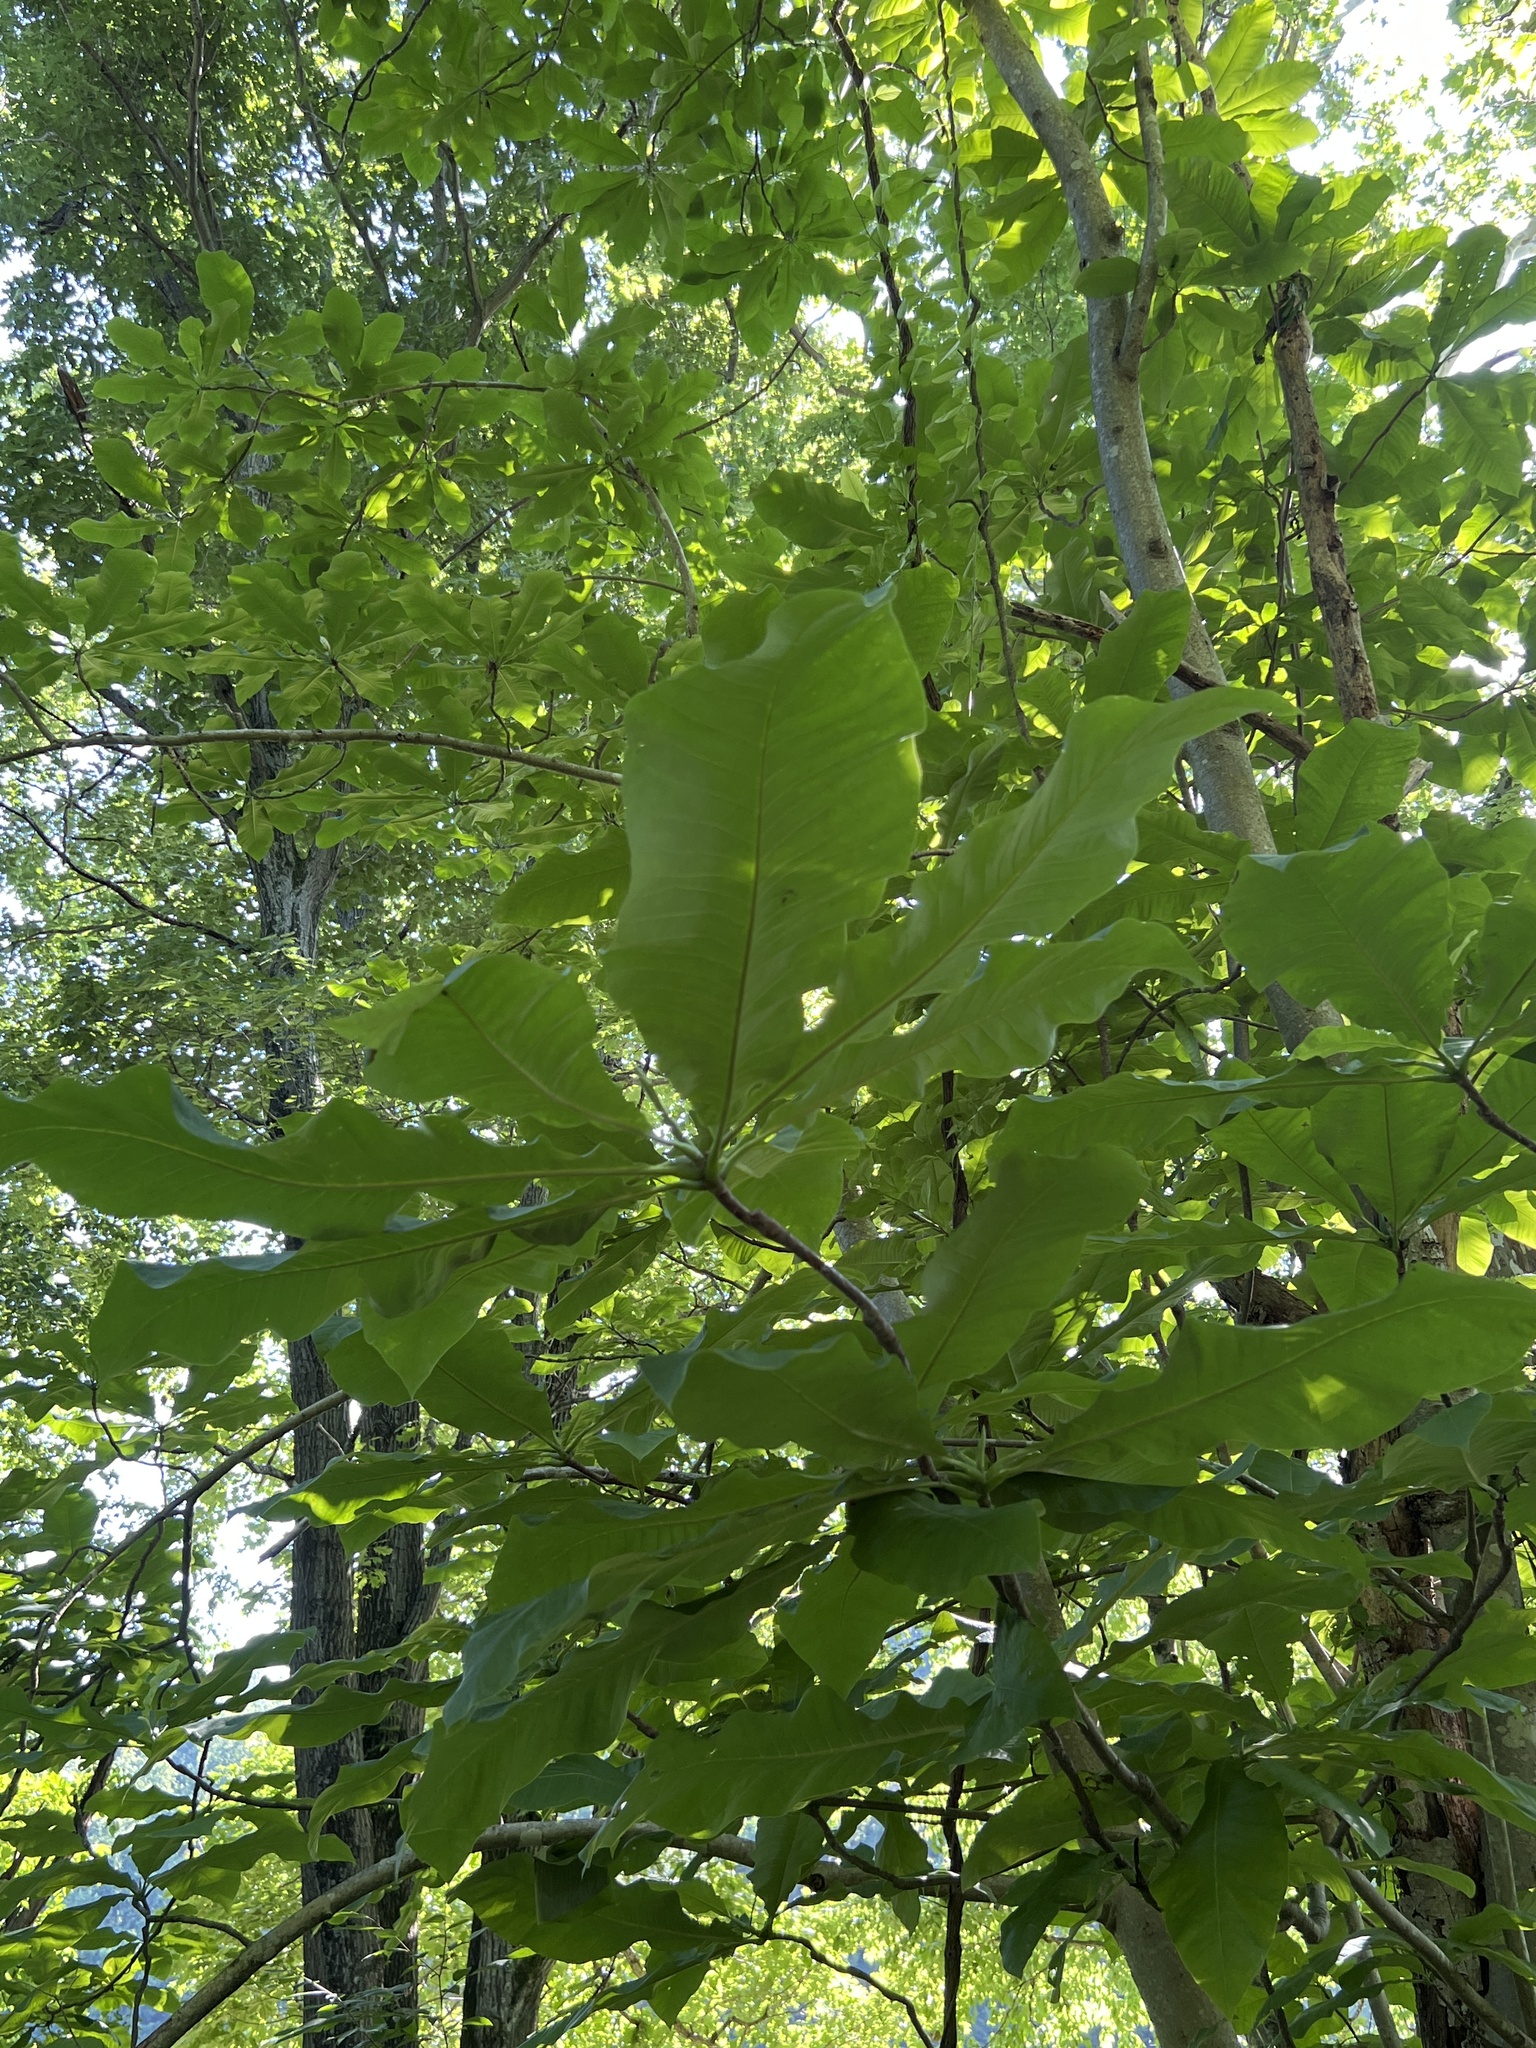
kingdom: Plantae
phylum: Tracheophyta
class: Magnoliopsida
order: Magnoliales
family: Magnoliaceae
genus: Magnolia
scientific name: Magnolia tripetala
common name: Umbrella magnolia
